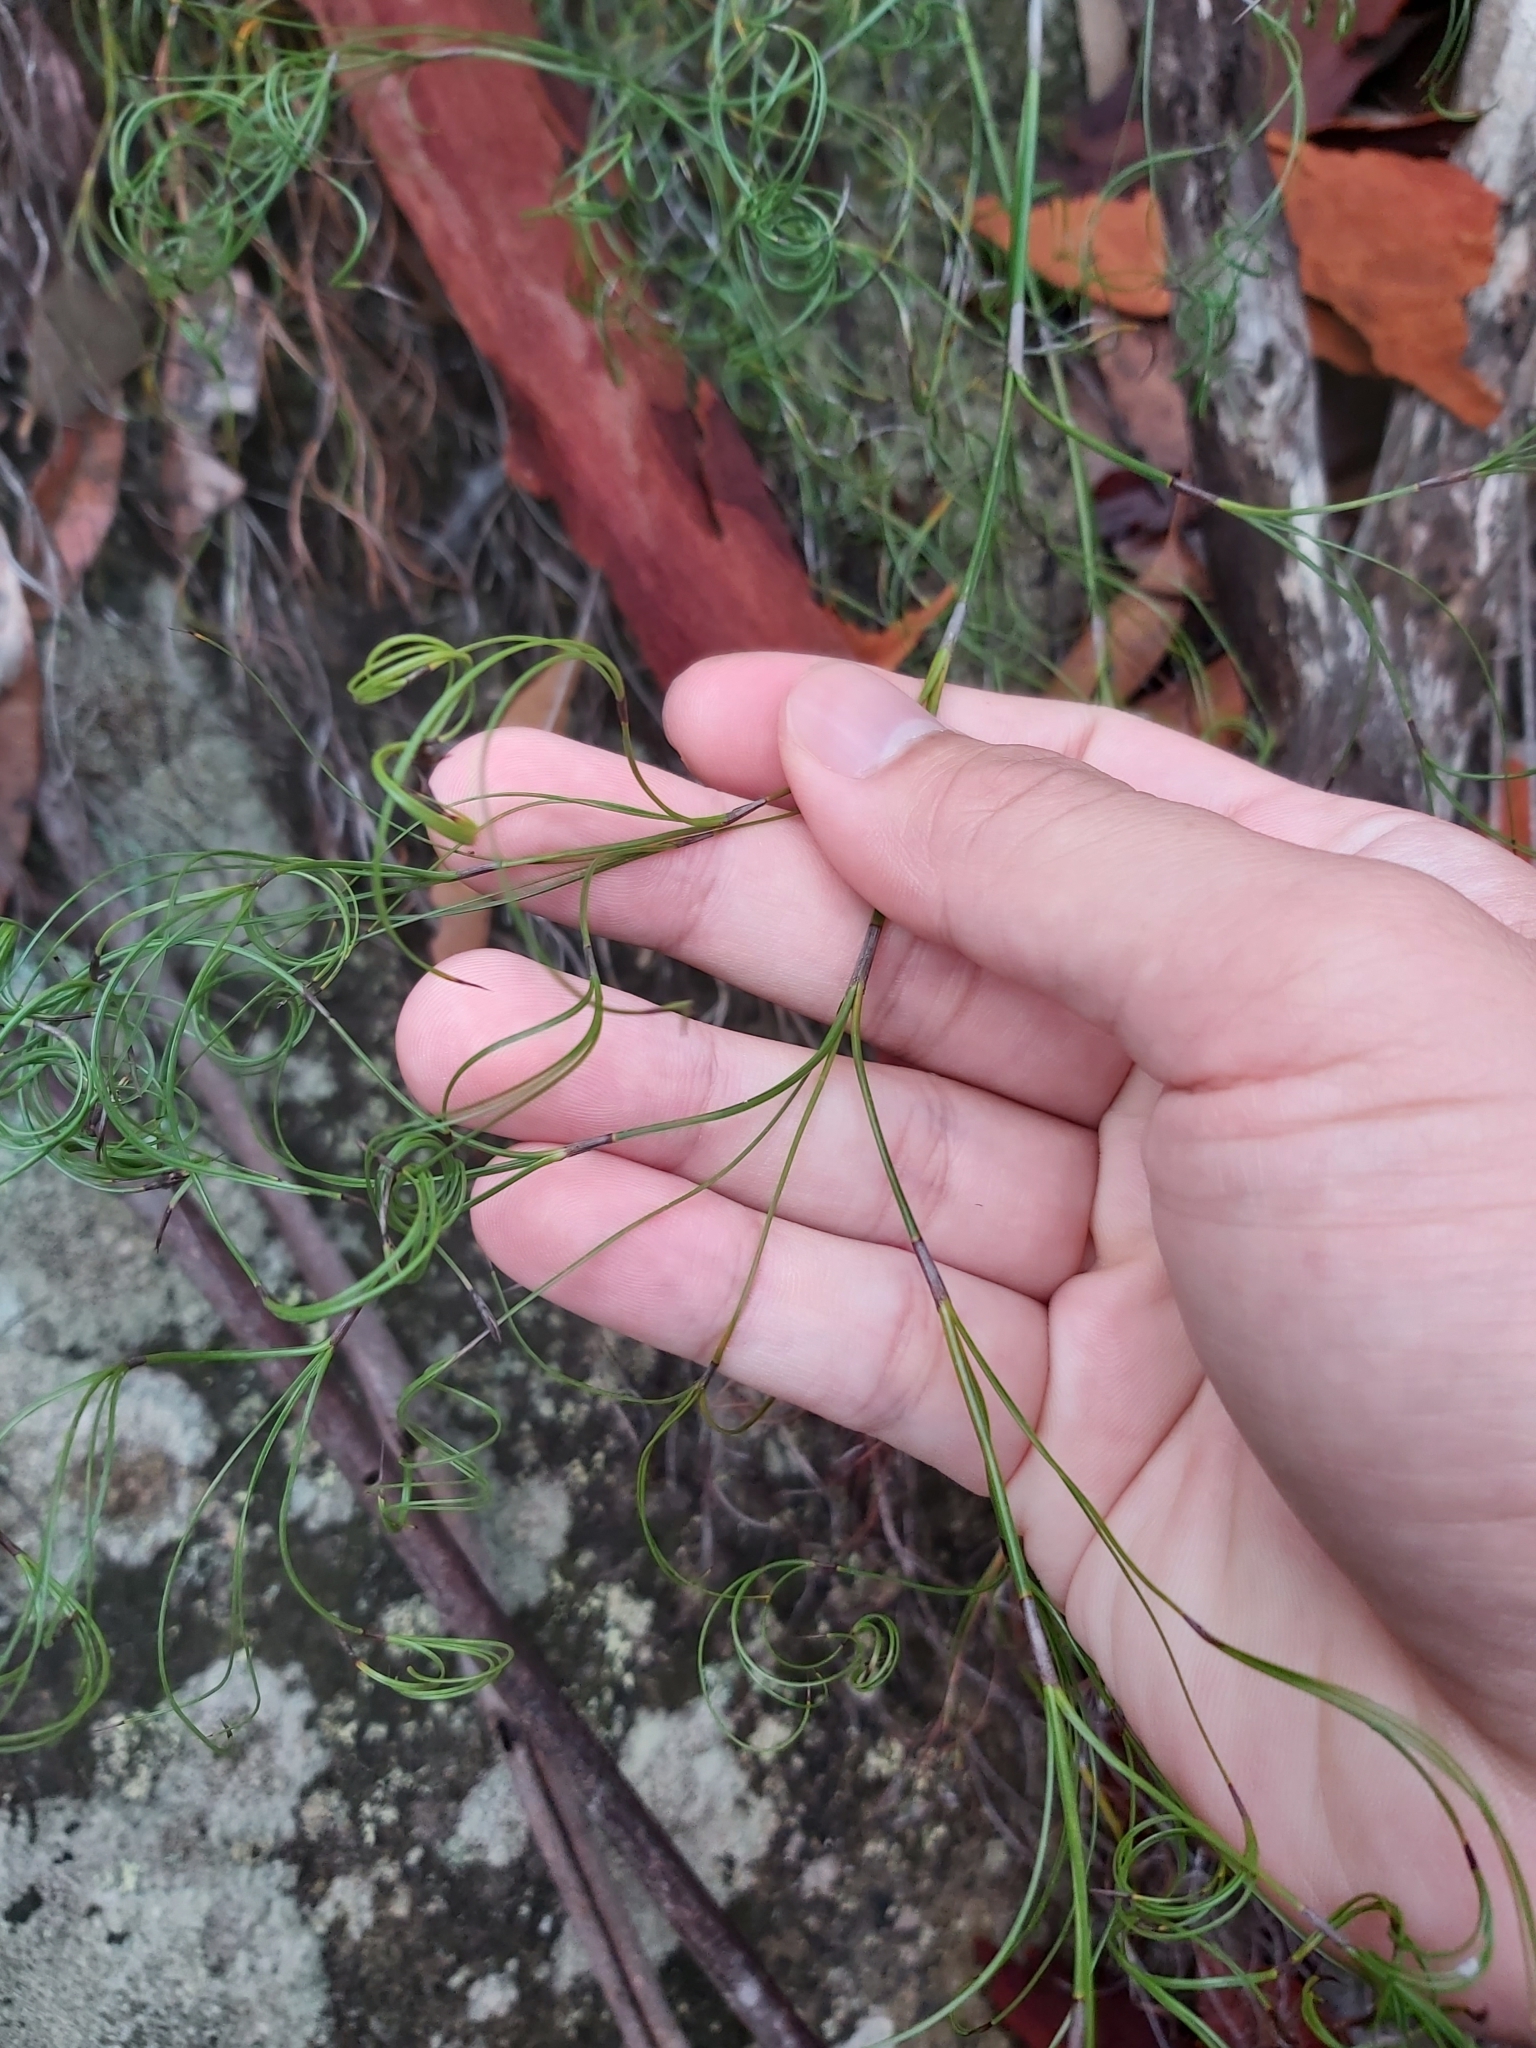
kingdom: Plantae
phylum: Tracheophyta
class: Liliopsida
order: Poales
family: Cyperaceae
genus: Caustis
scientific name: Caustis flexuosa
